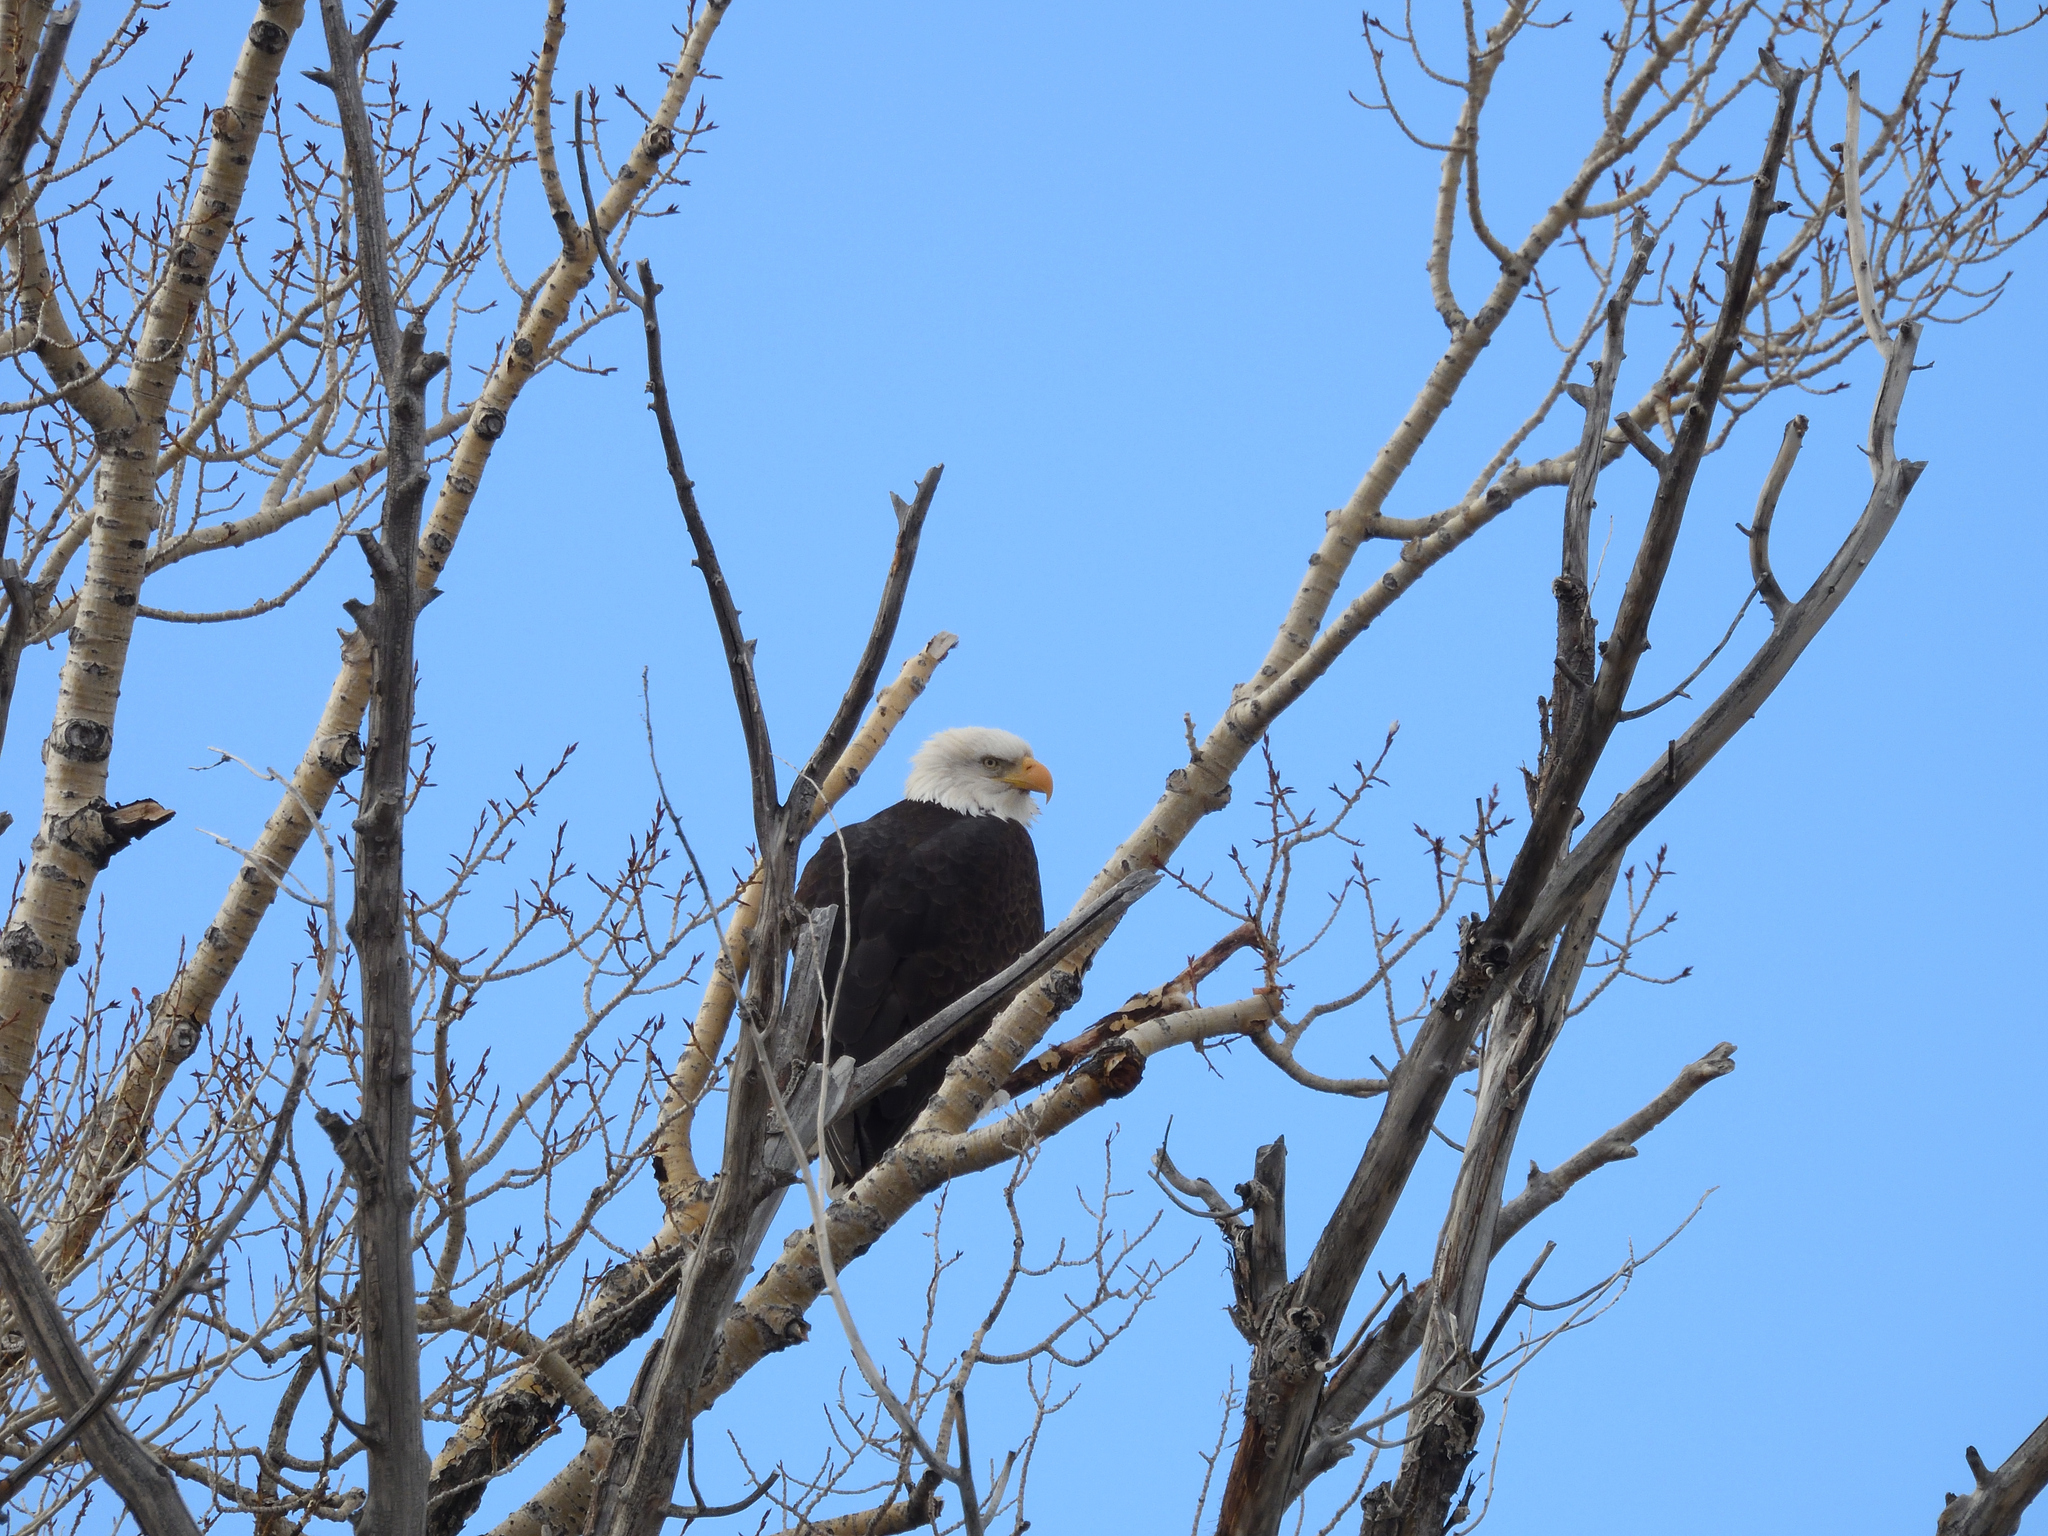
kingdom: Animalia
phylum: Chordata
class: Aves
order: Accipitriformes
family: Accipitridae
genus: Haliaeetus
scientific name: Haliaeetus leucocephalus
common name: Bald eagle
